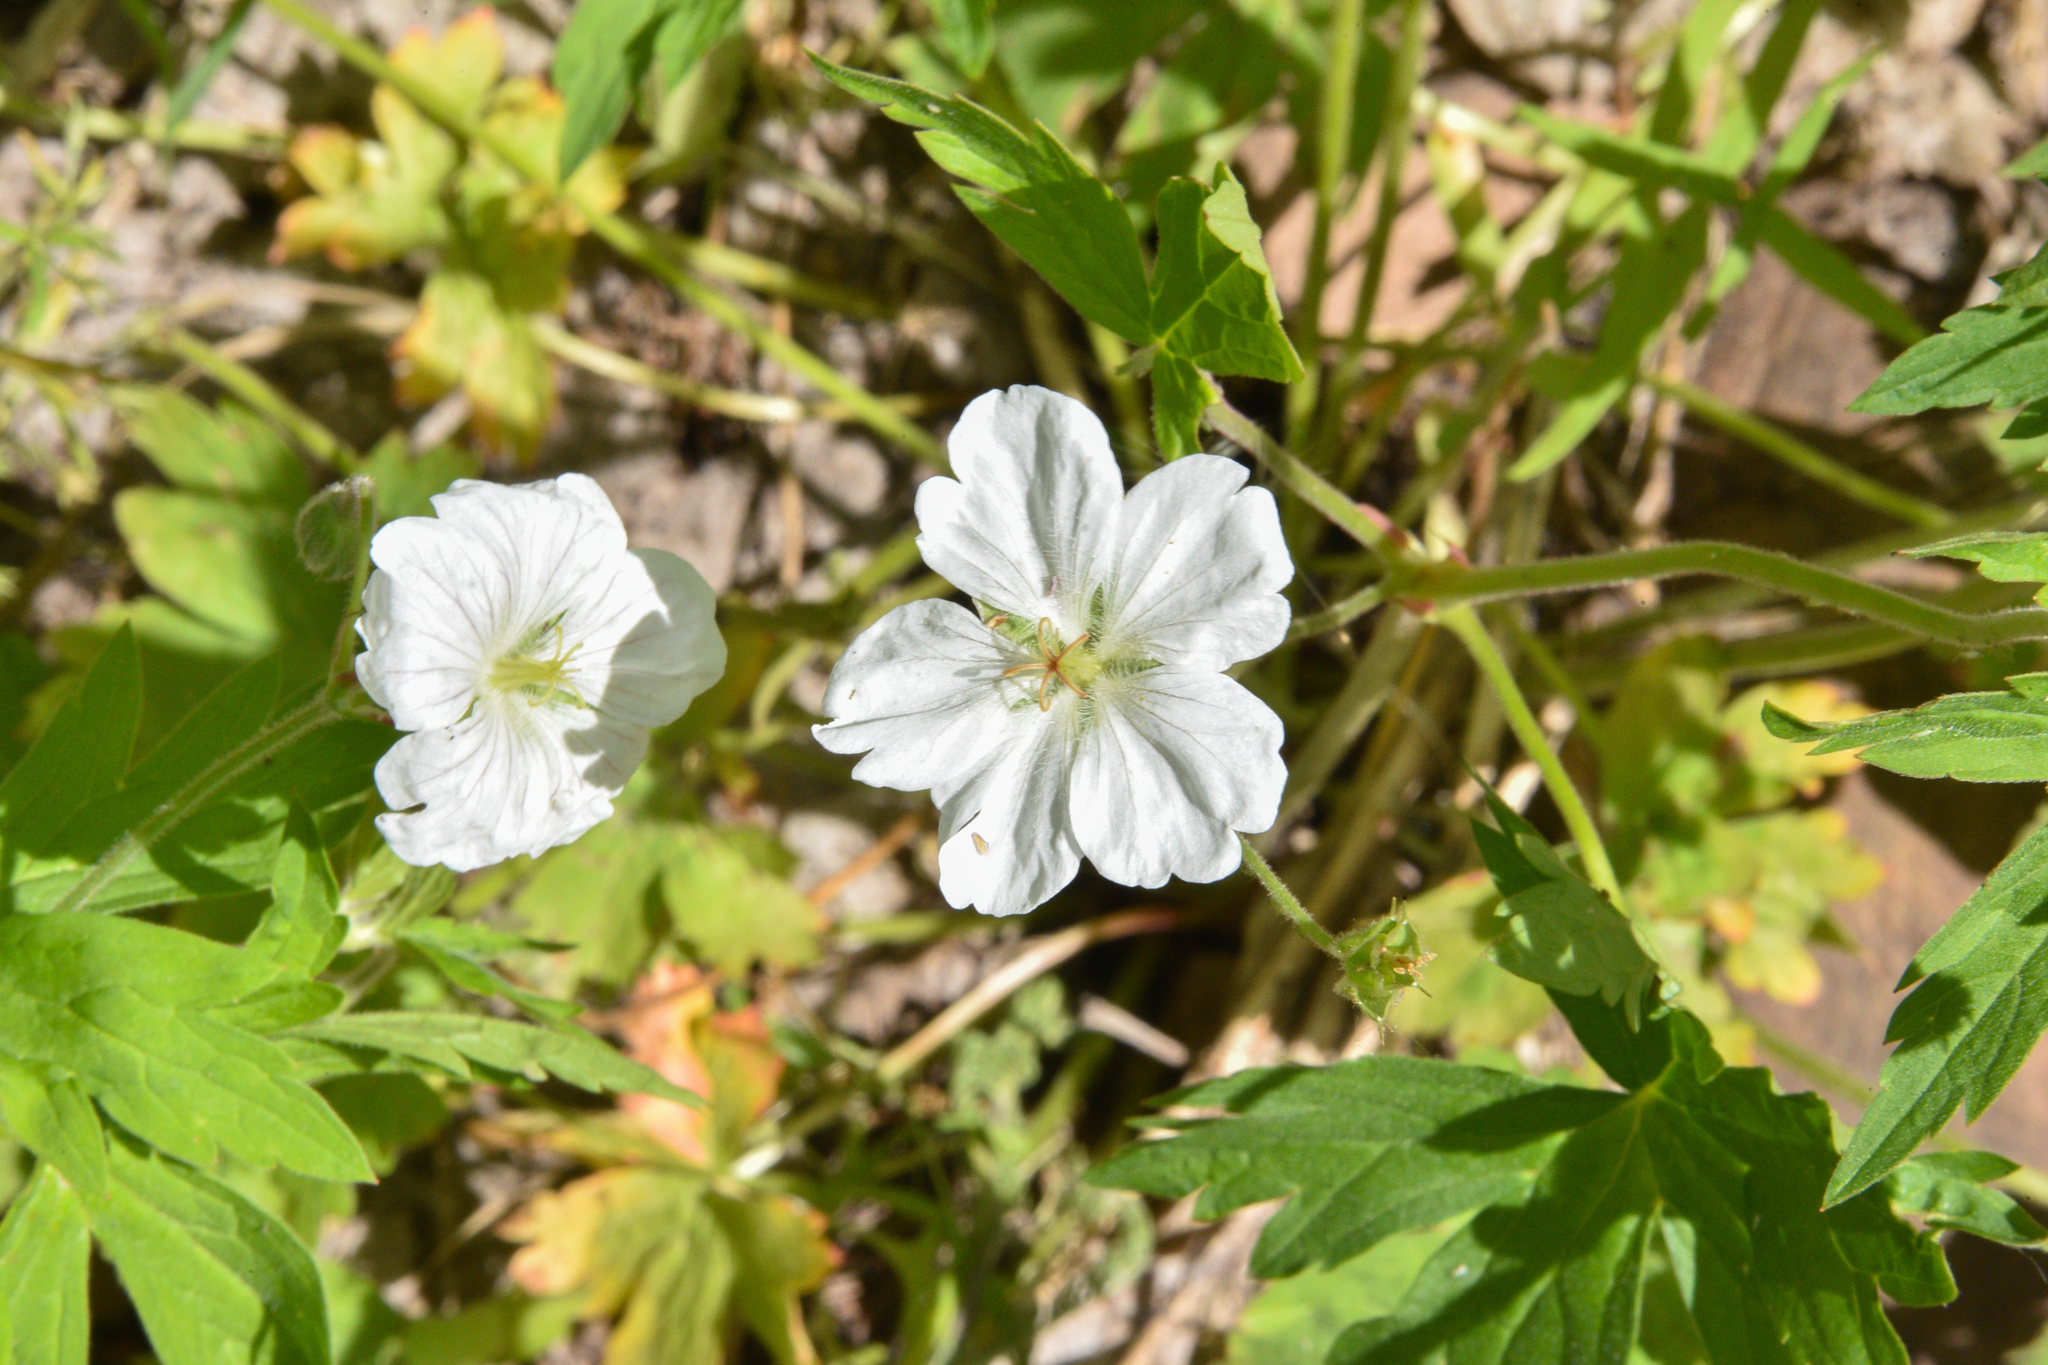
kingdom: Plantae
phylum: Tracheophyta
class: Magnoliopsida
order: Geraniales
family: Geraniaceae
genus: Geranium
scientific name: Geranium viscosissimum
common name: Purple geranium
